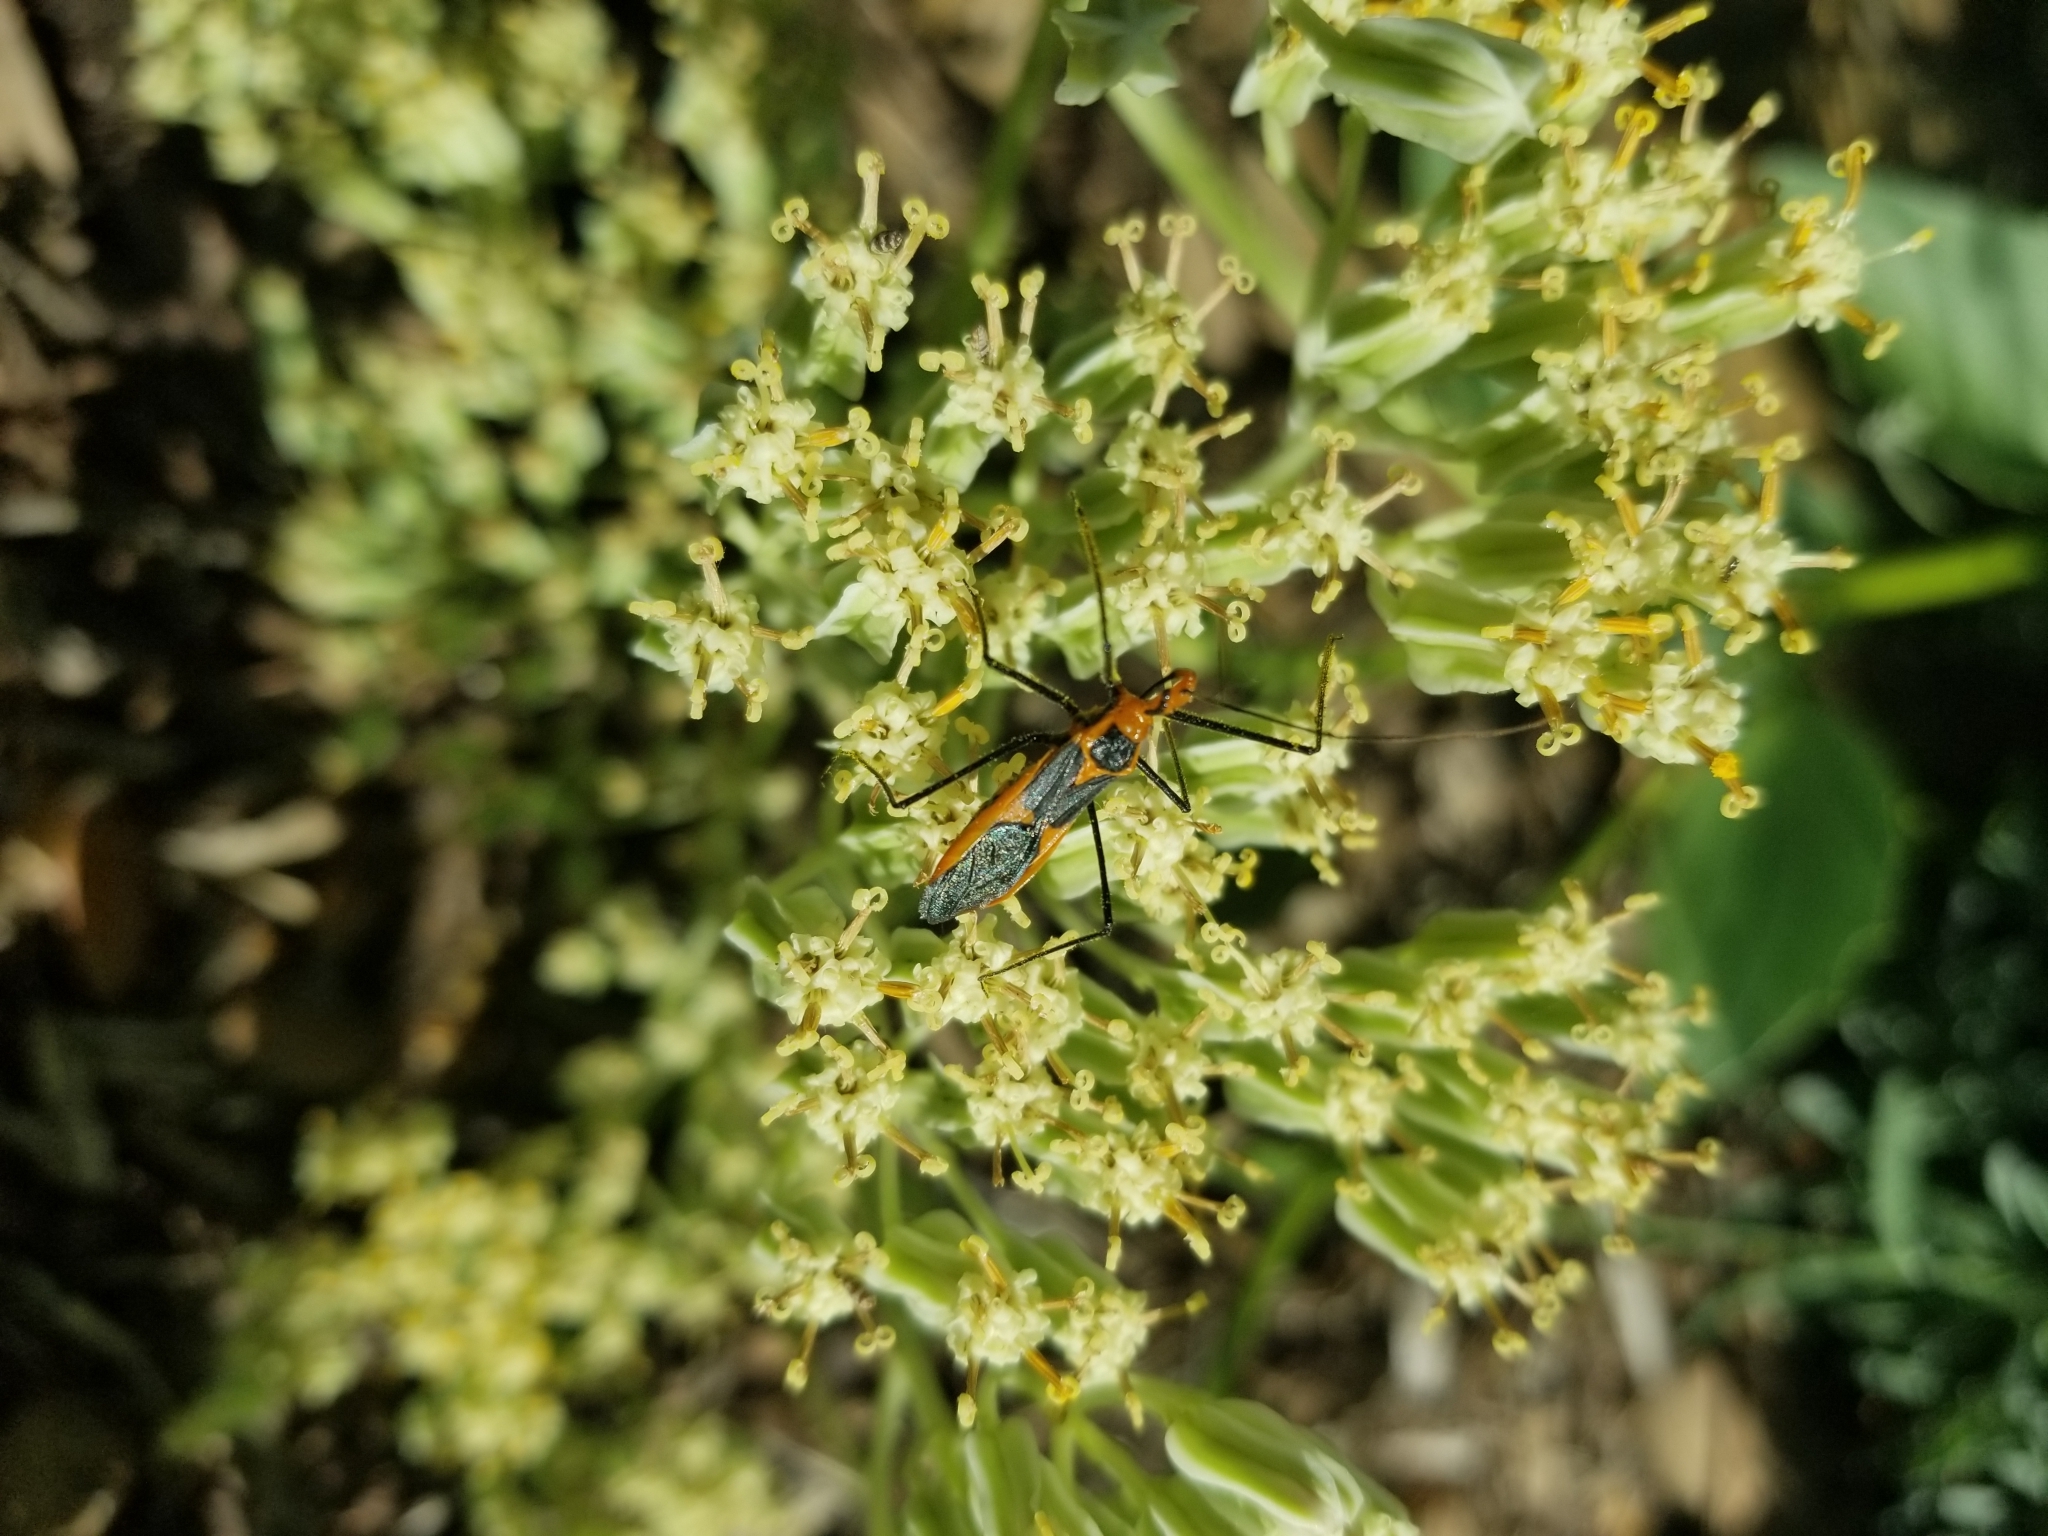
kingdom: Animalia
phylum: Arthropoda
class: Insecta
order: Hemiptera
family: Reduviidae
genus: Zelus
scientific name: Zelus longipes
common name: Milkweed assassin bug
